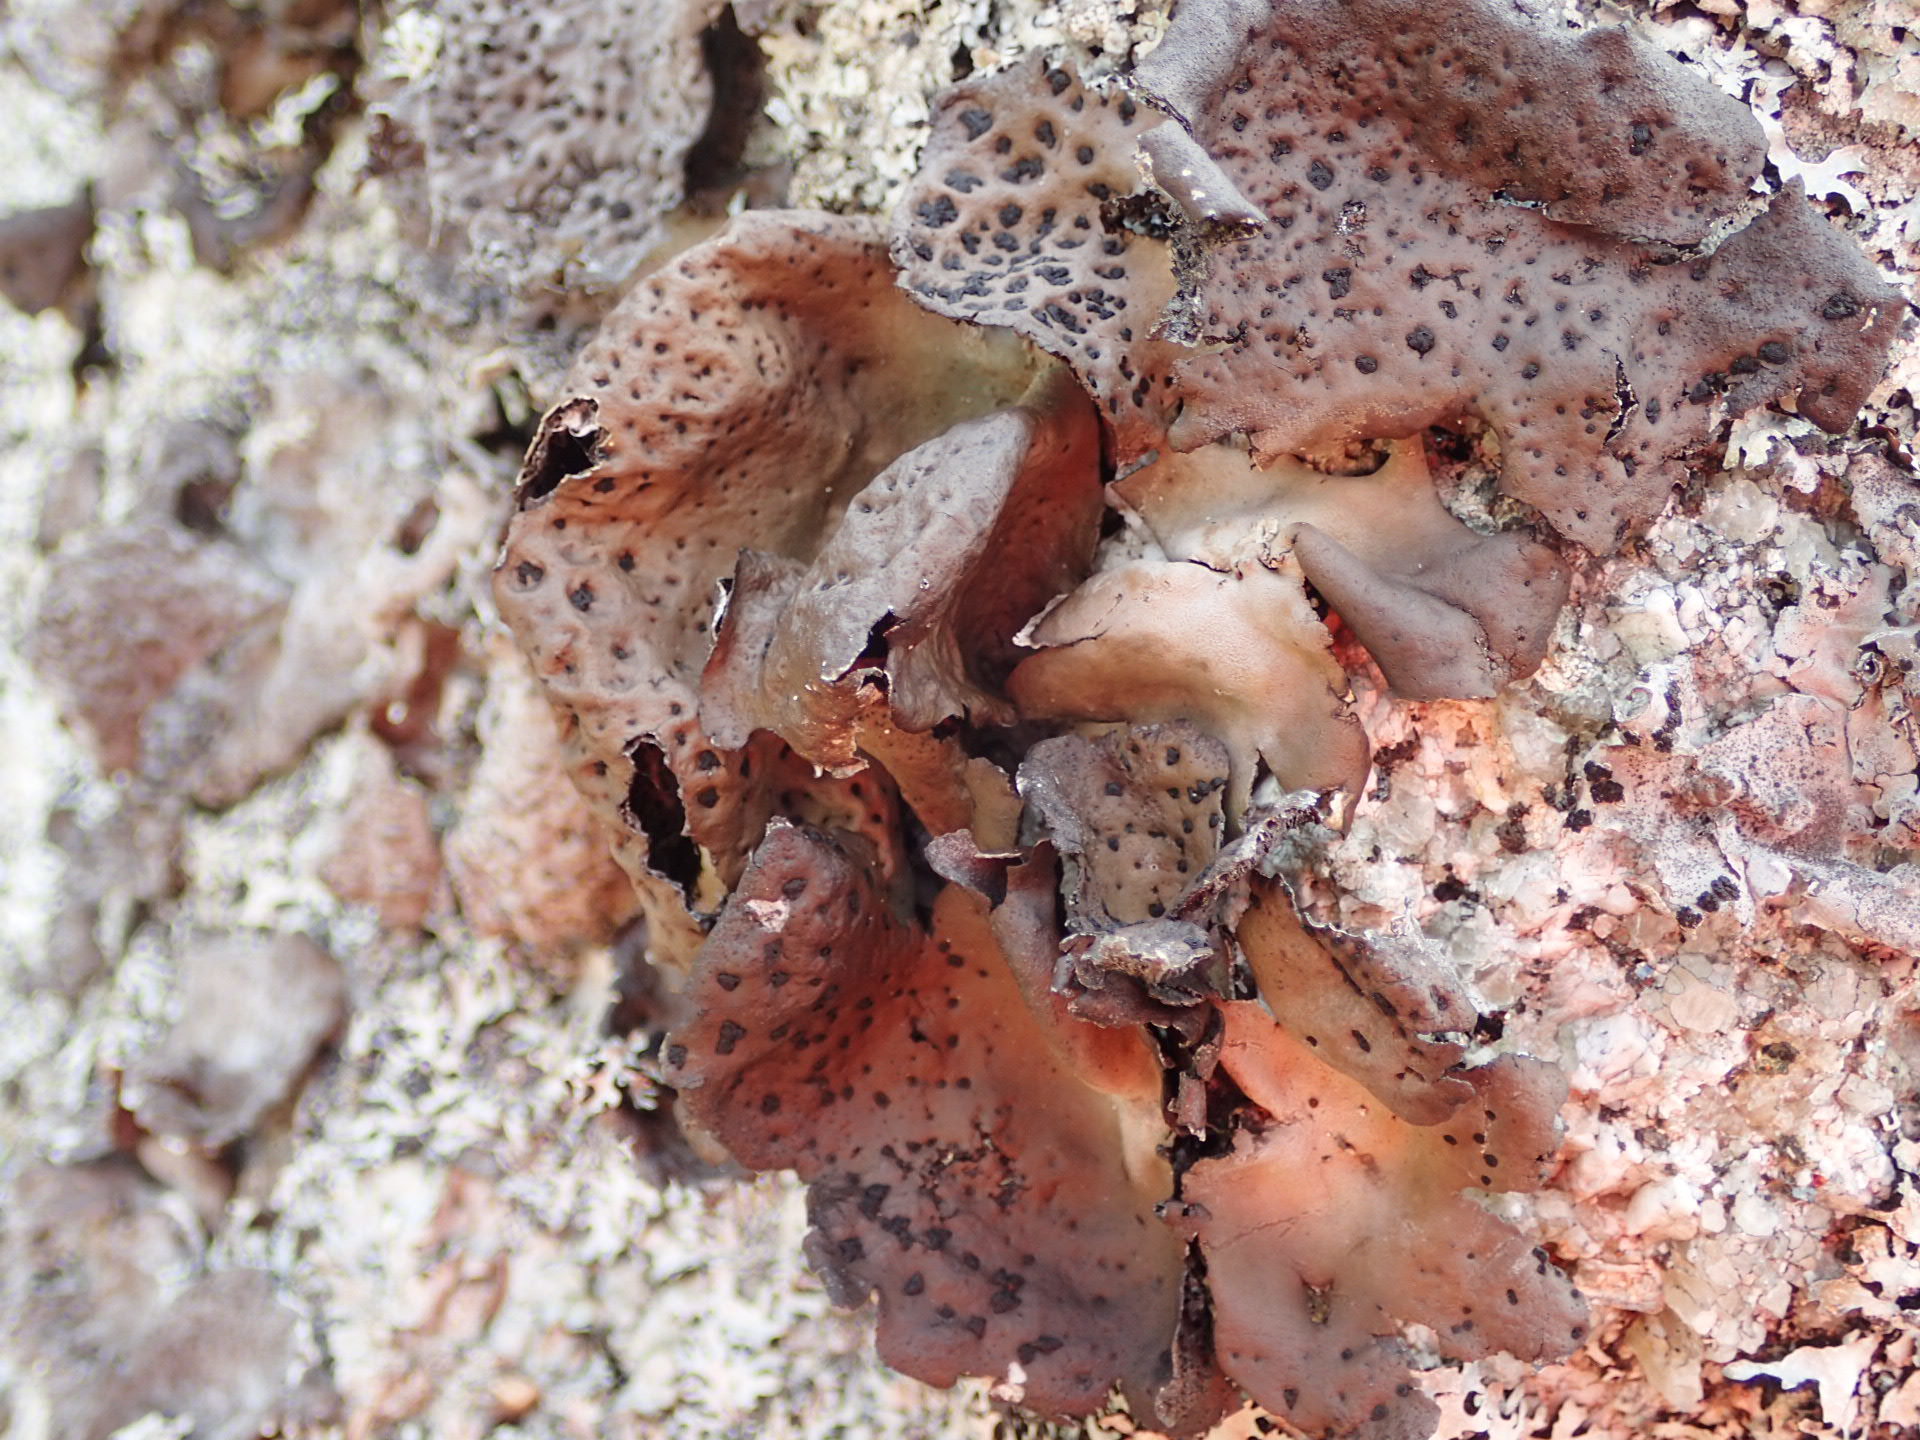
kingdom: Fungi
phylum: Ascomycota
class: Lecanoromycetes
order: Umbilicariales
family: Umbilicariaceae
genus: Umbilicaria
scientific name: Umbilicaria muhlenbergii
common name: Lesser rocktripe
